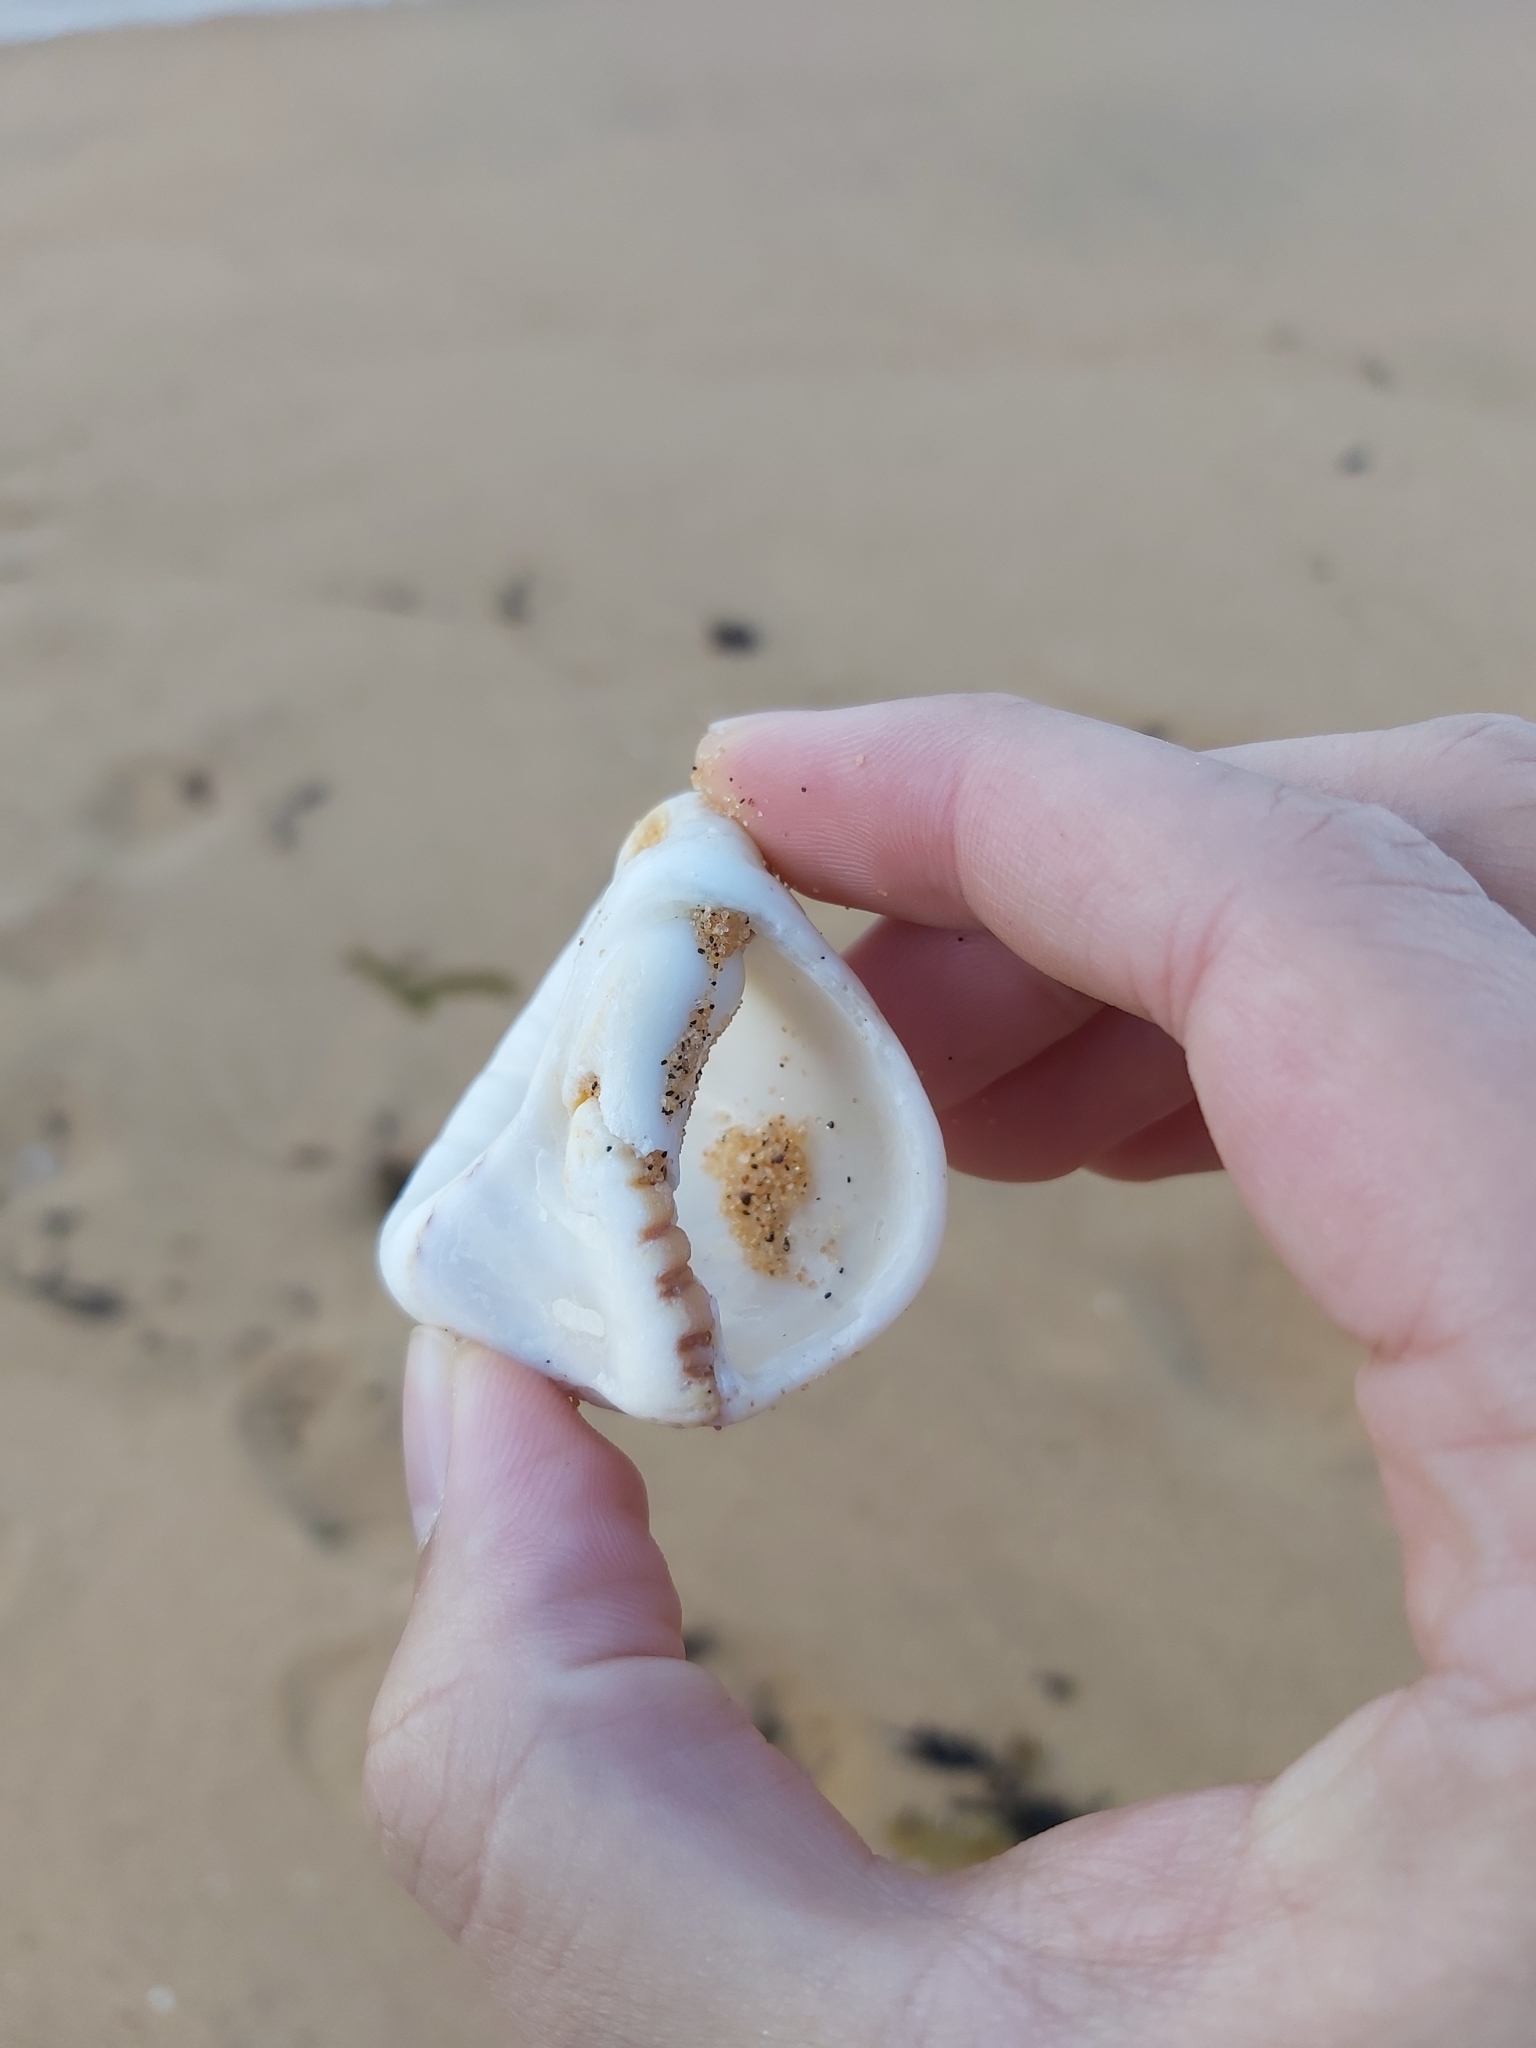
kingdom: Animalia
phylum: Mollusca
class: Gastropoda
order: Littorinimorpha
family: Cymatiidae
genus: Cabestana
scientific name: Cabestana spengleri
